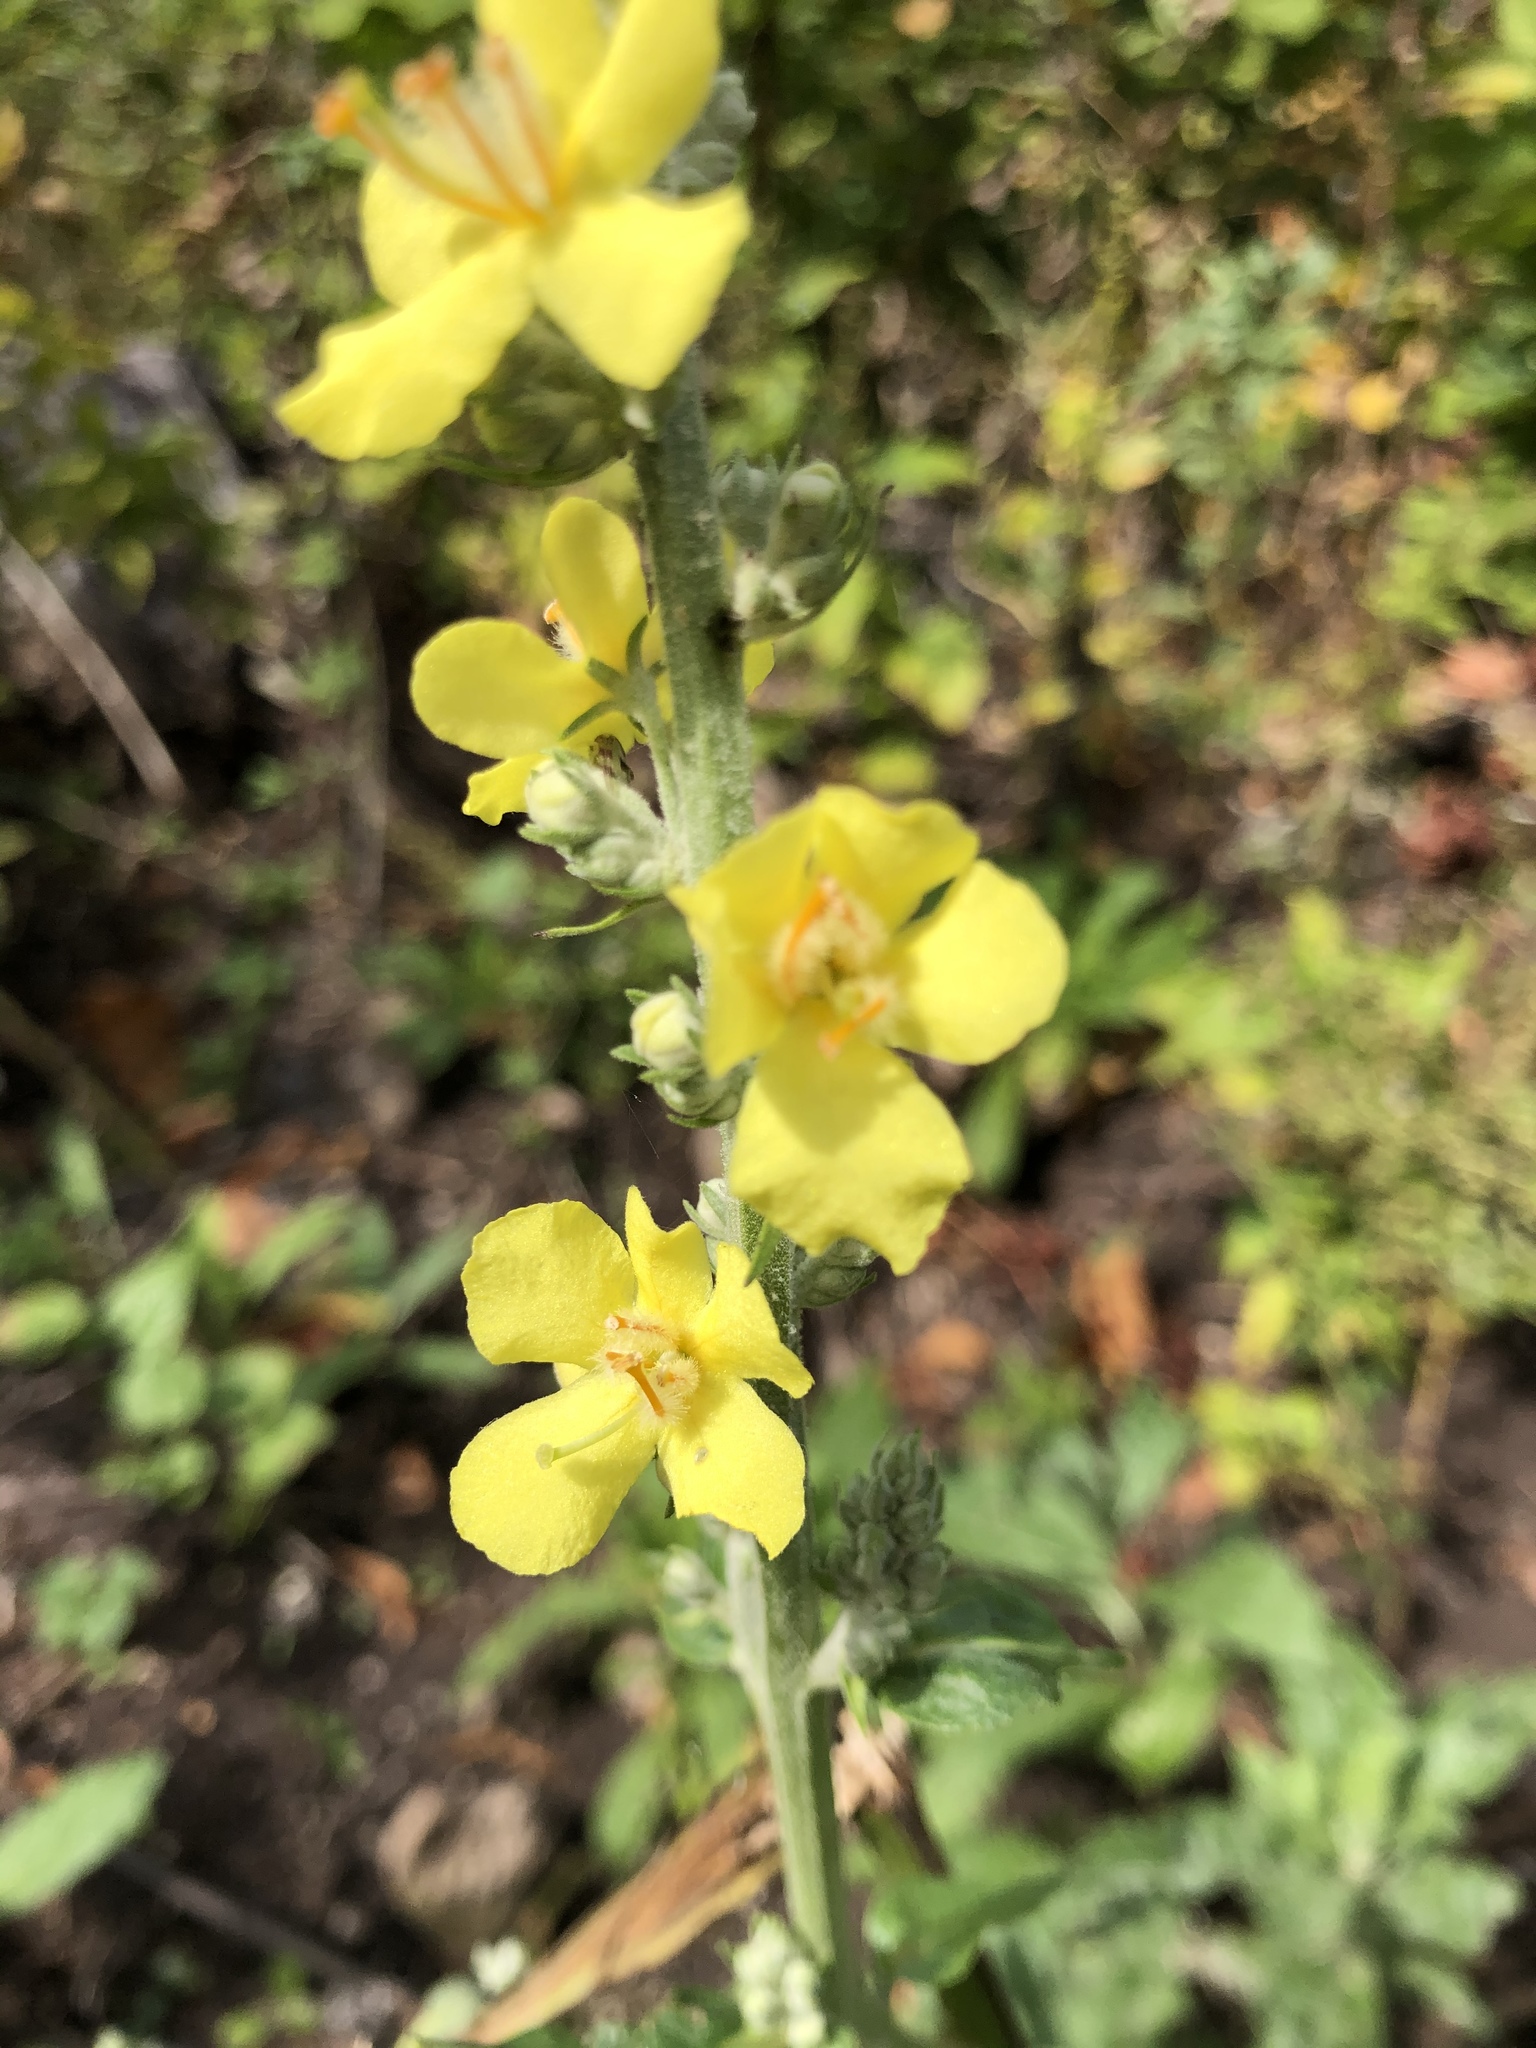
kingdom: Plantae
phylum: Tracheophyta
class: Magnoliopsida
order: Lamiales
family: Scrophulariaceae
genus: Verbascum
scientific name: Verbascum lychnitis
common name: White mullein
